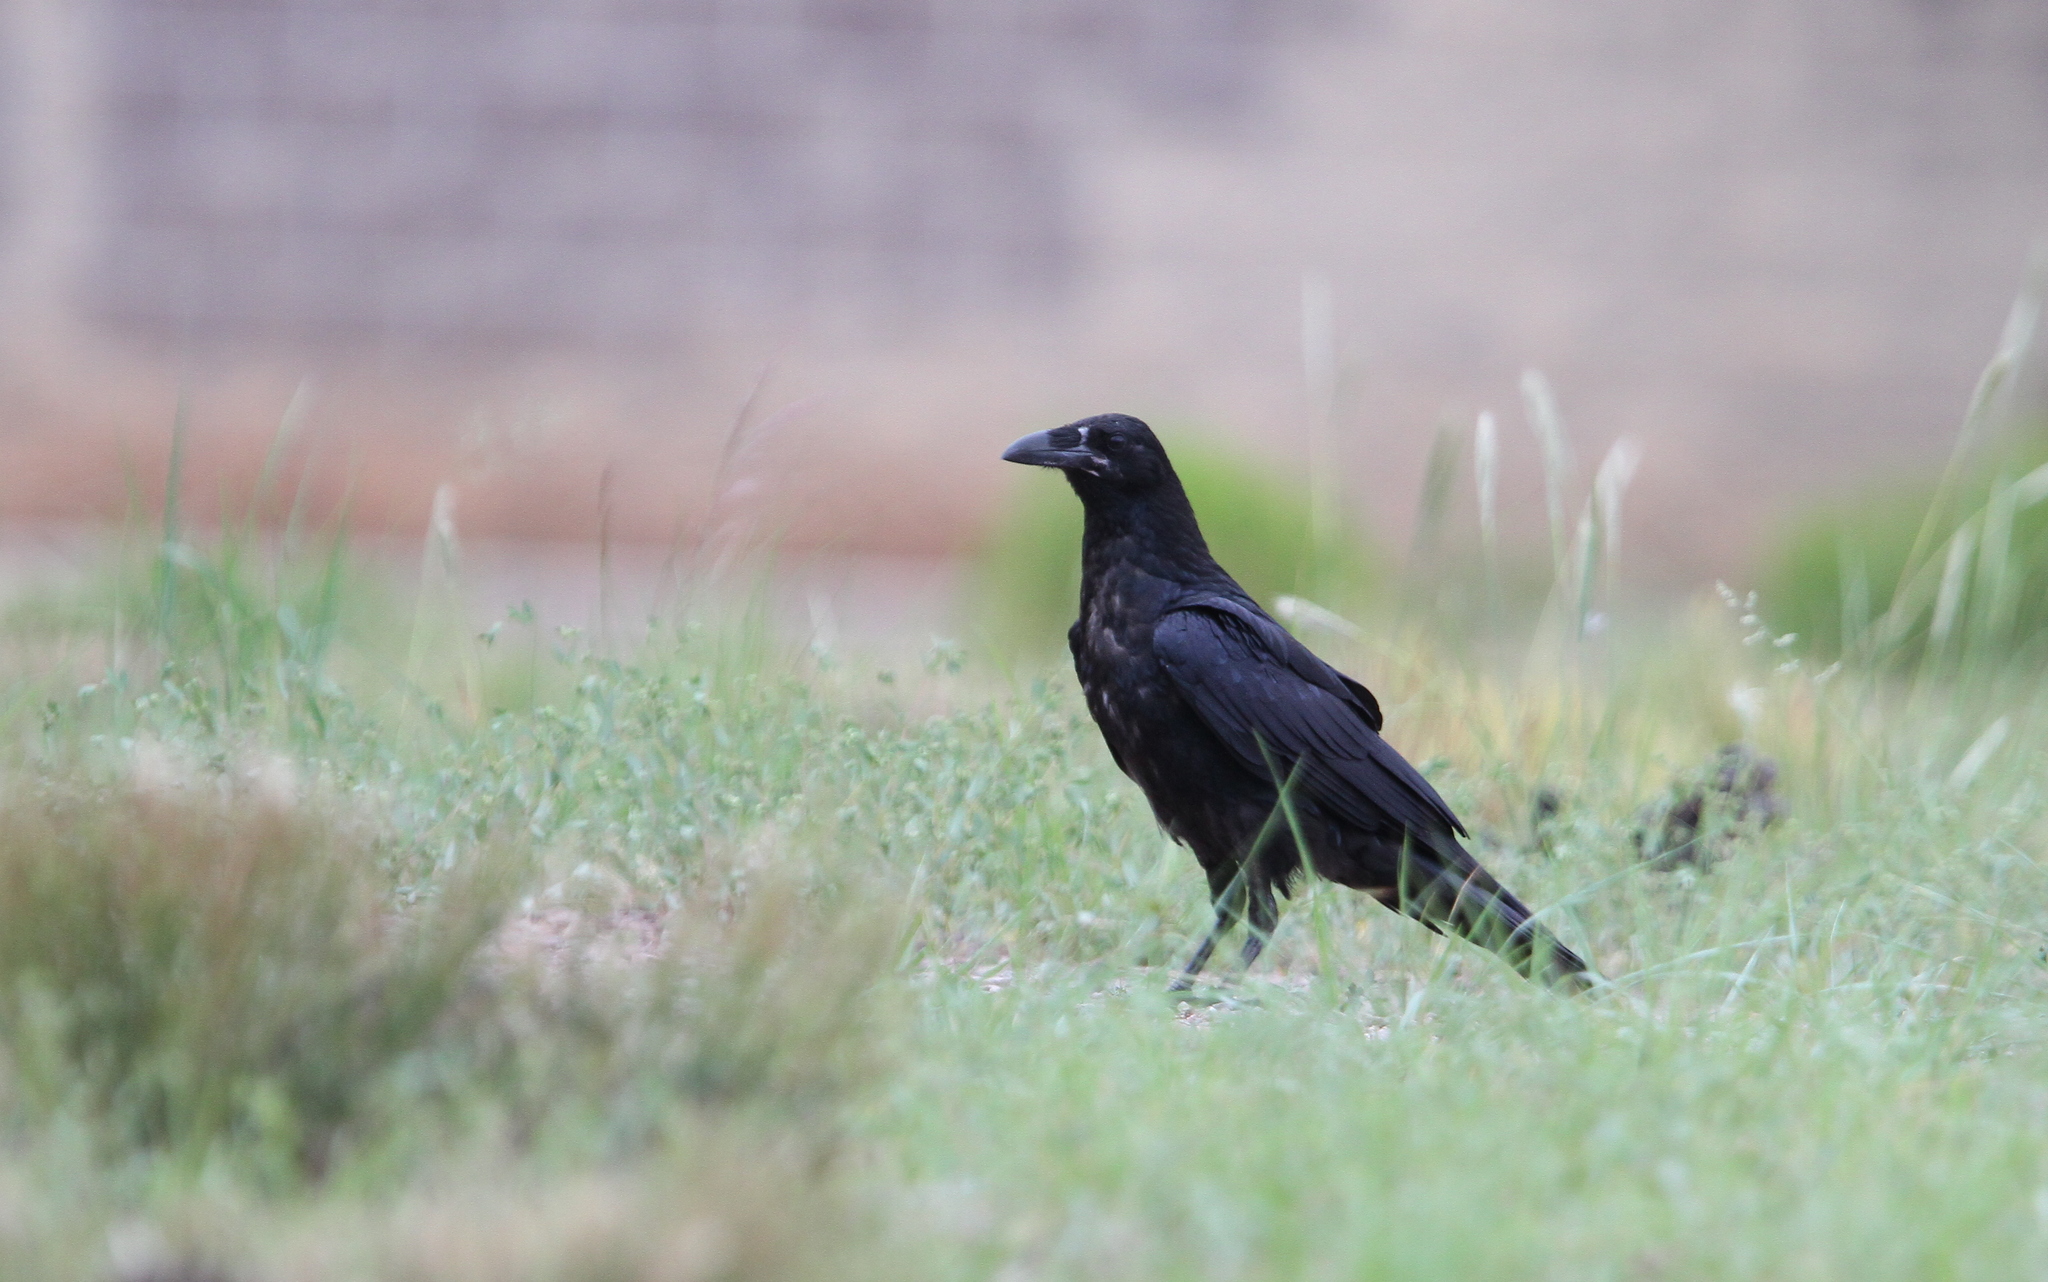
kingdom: Animalia
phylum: Chordata
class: Aves
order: Passeriformes
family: Corvidae
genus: Corvus
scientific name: Corvus cryptoleucus
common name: Chihuahuan raven
